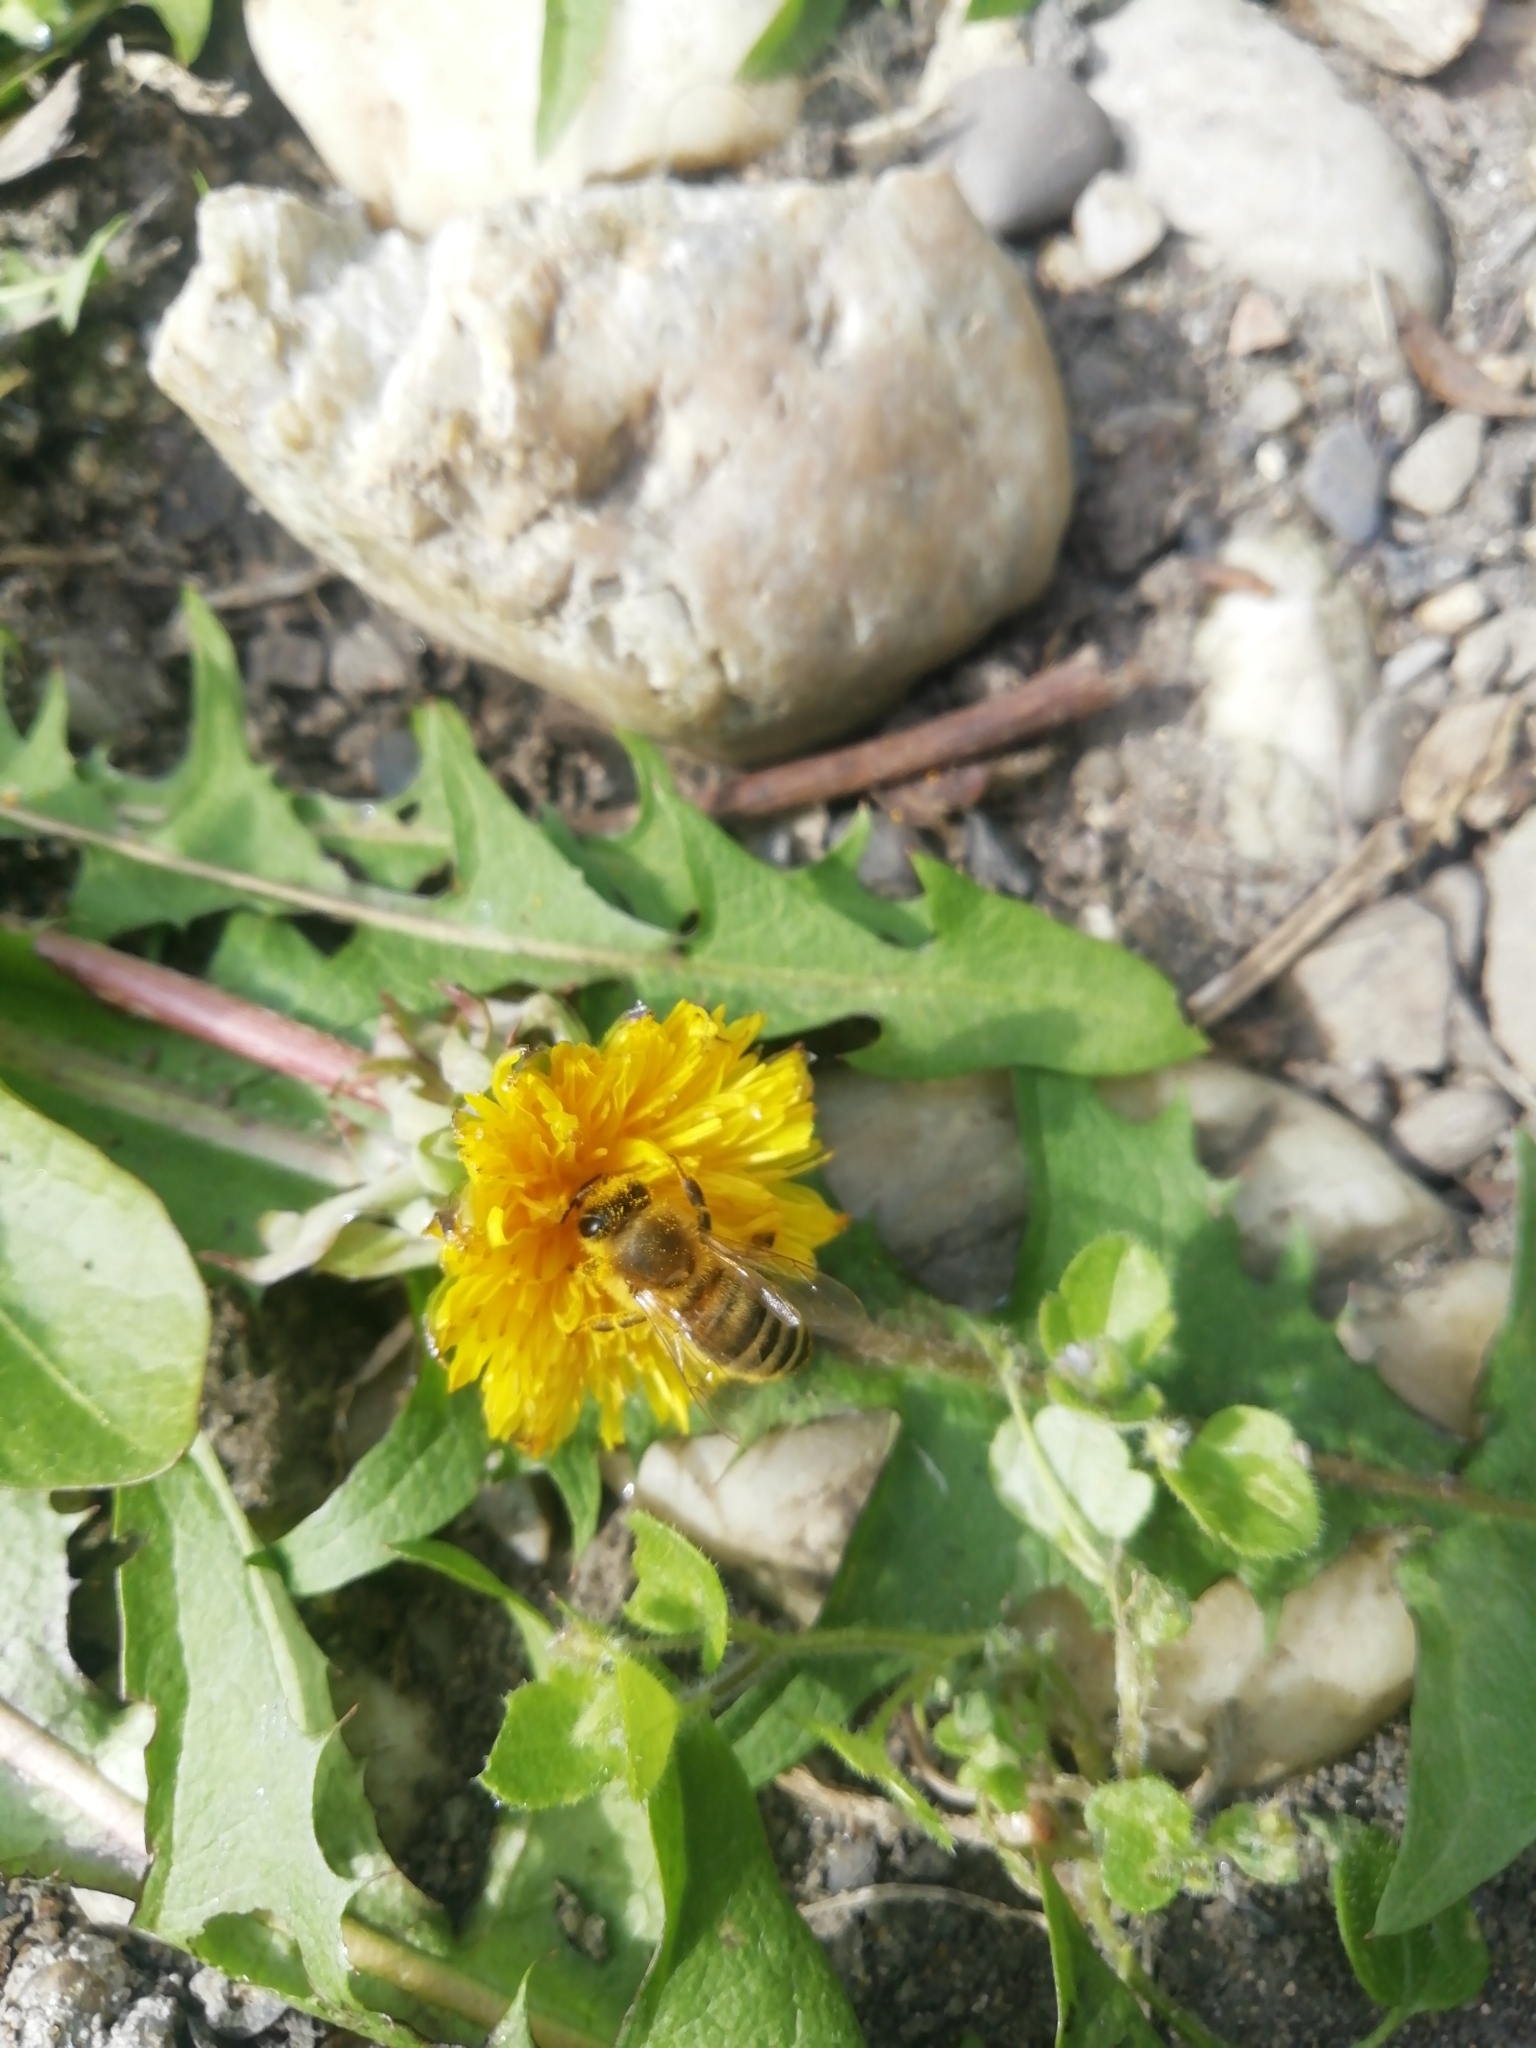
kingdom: Animalia
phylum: Arthropoda
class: Insecta
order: Hymenoptera
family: Apidae
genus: Apis
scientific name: Apis mellifera
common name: Honey bee
